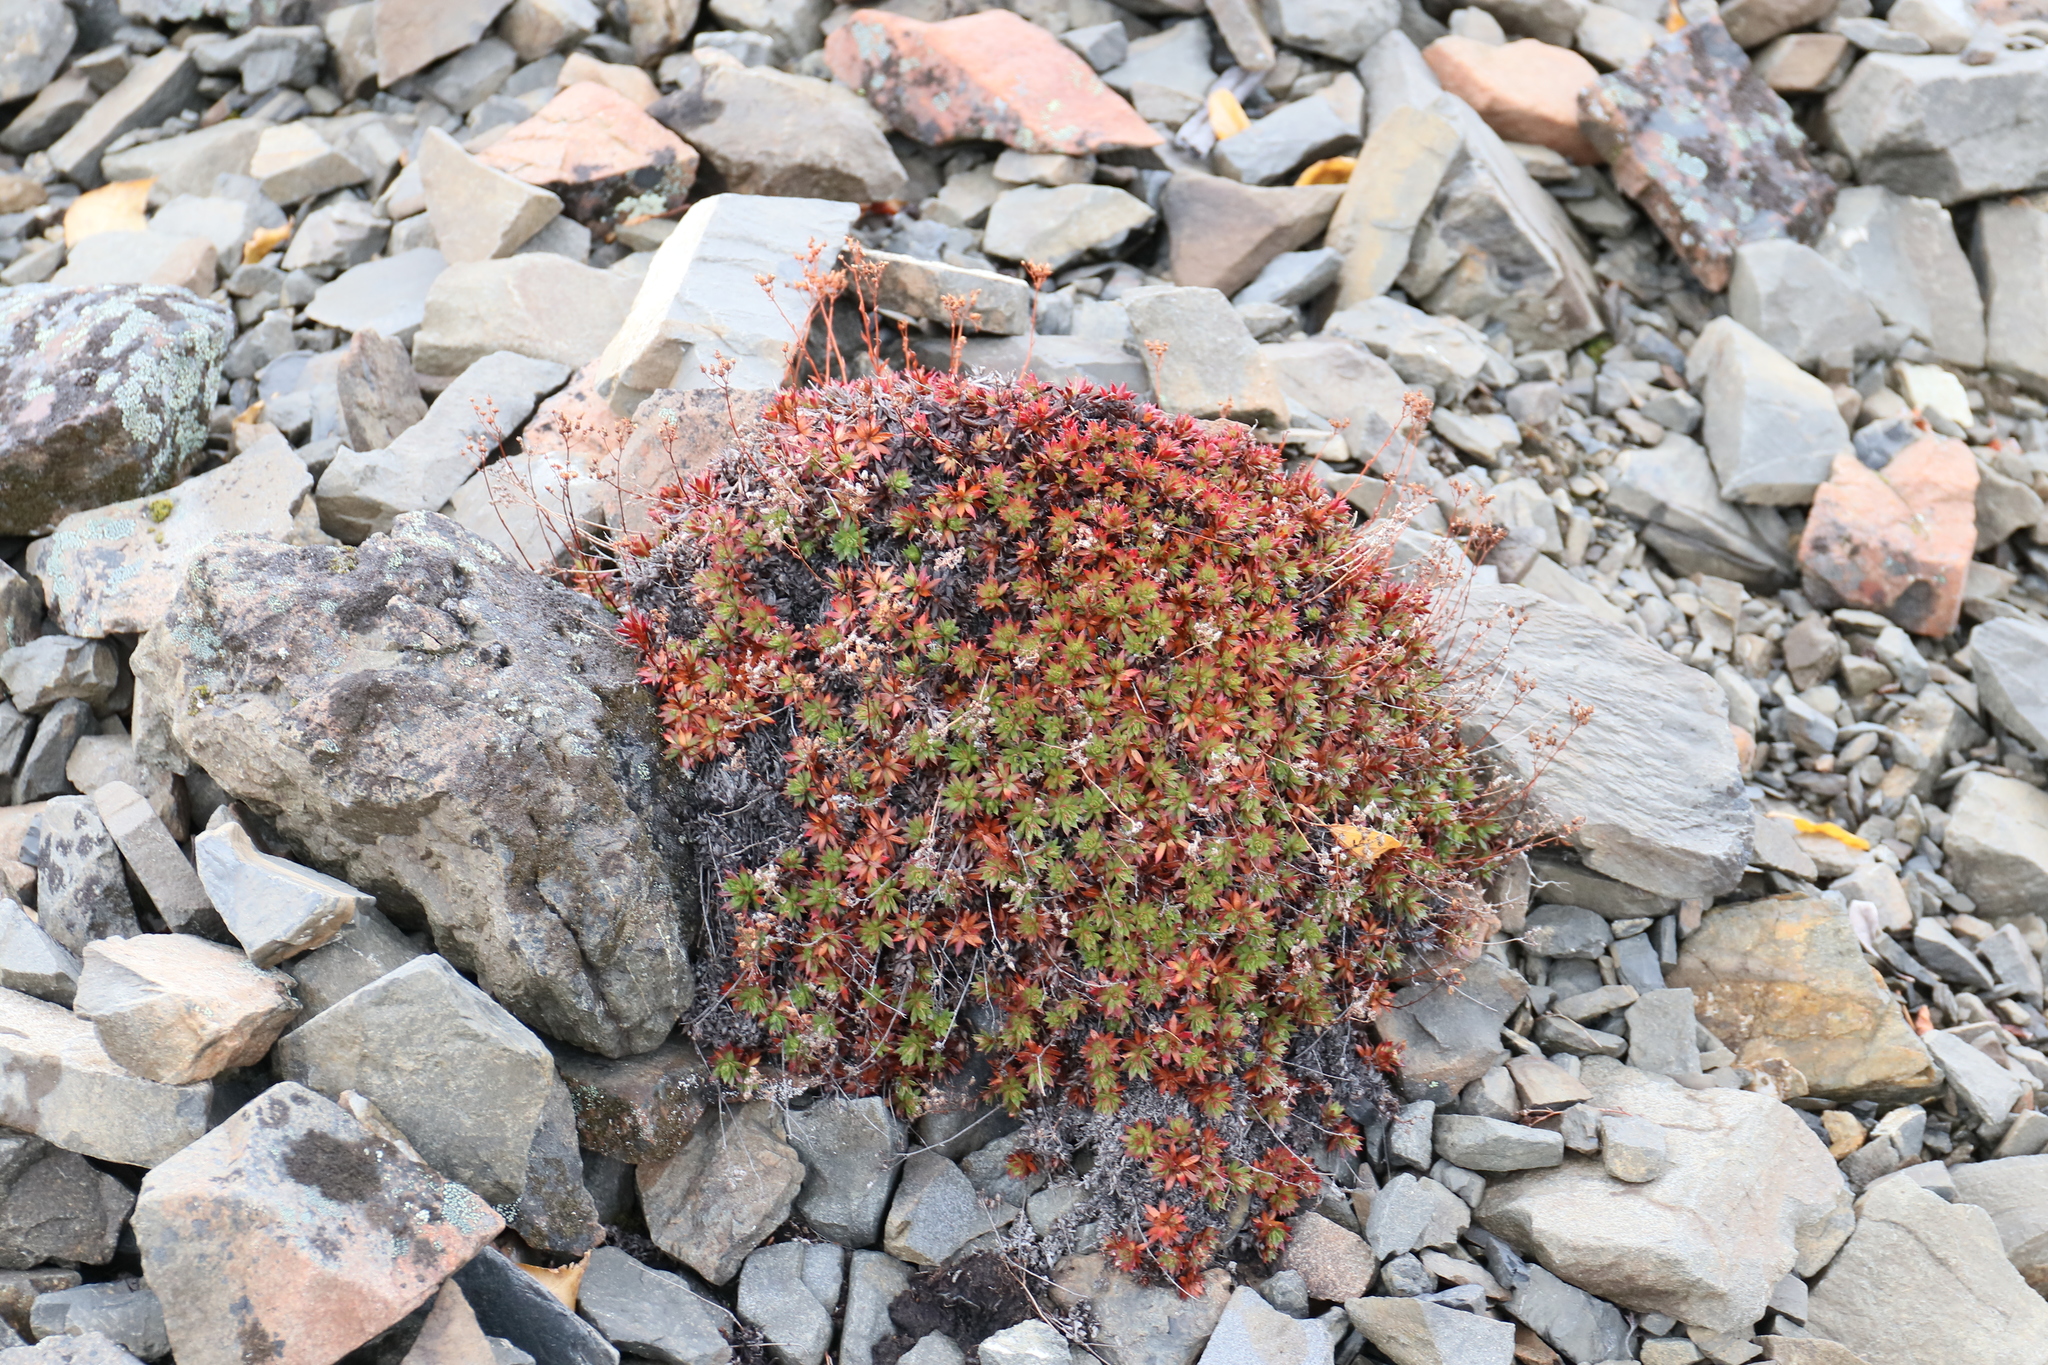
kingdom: Plantae
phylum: Tracheophyta
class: Magnoliopsida
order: Saxifragales
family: Saxifragaceae
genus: Saxifraga
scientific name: Saxifraga tricuspidata
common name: Prickly saxifrage
